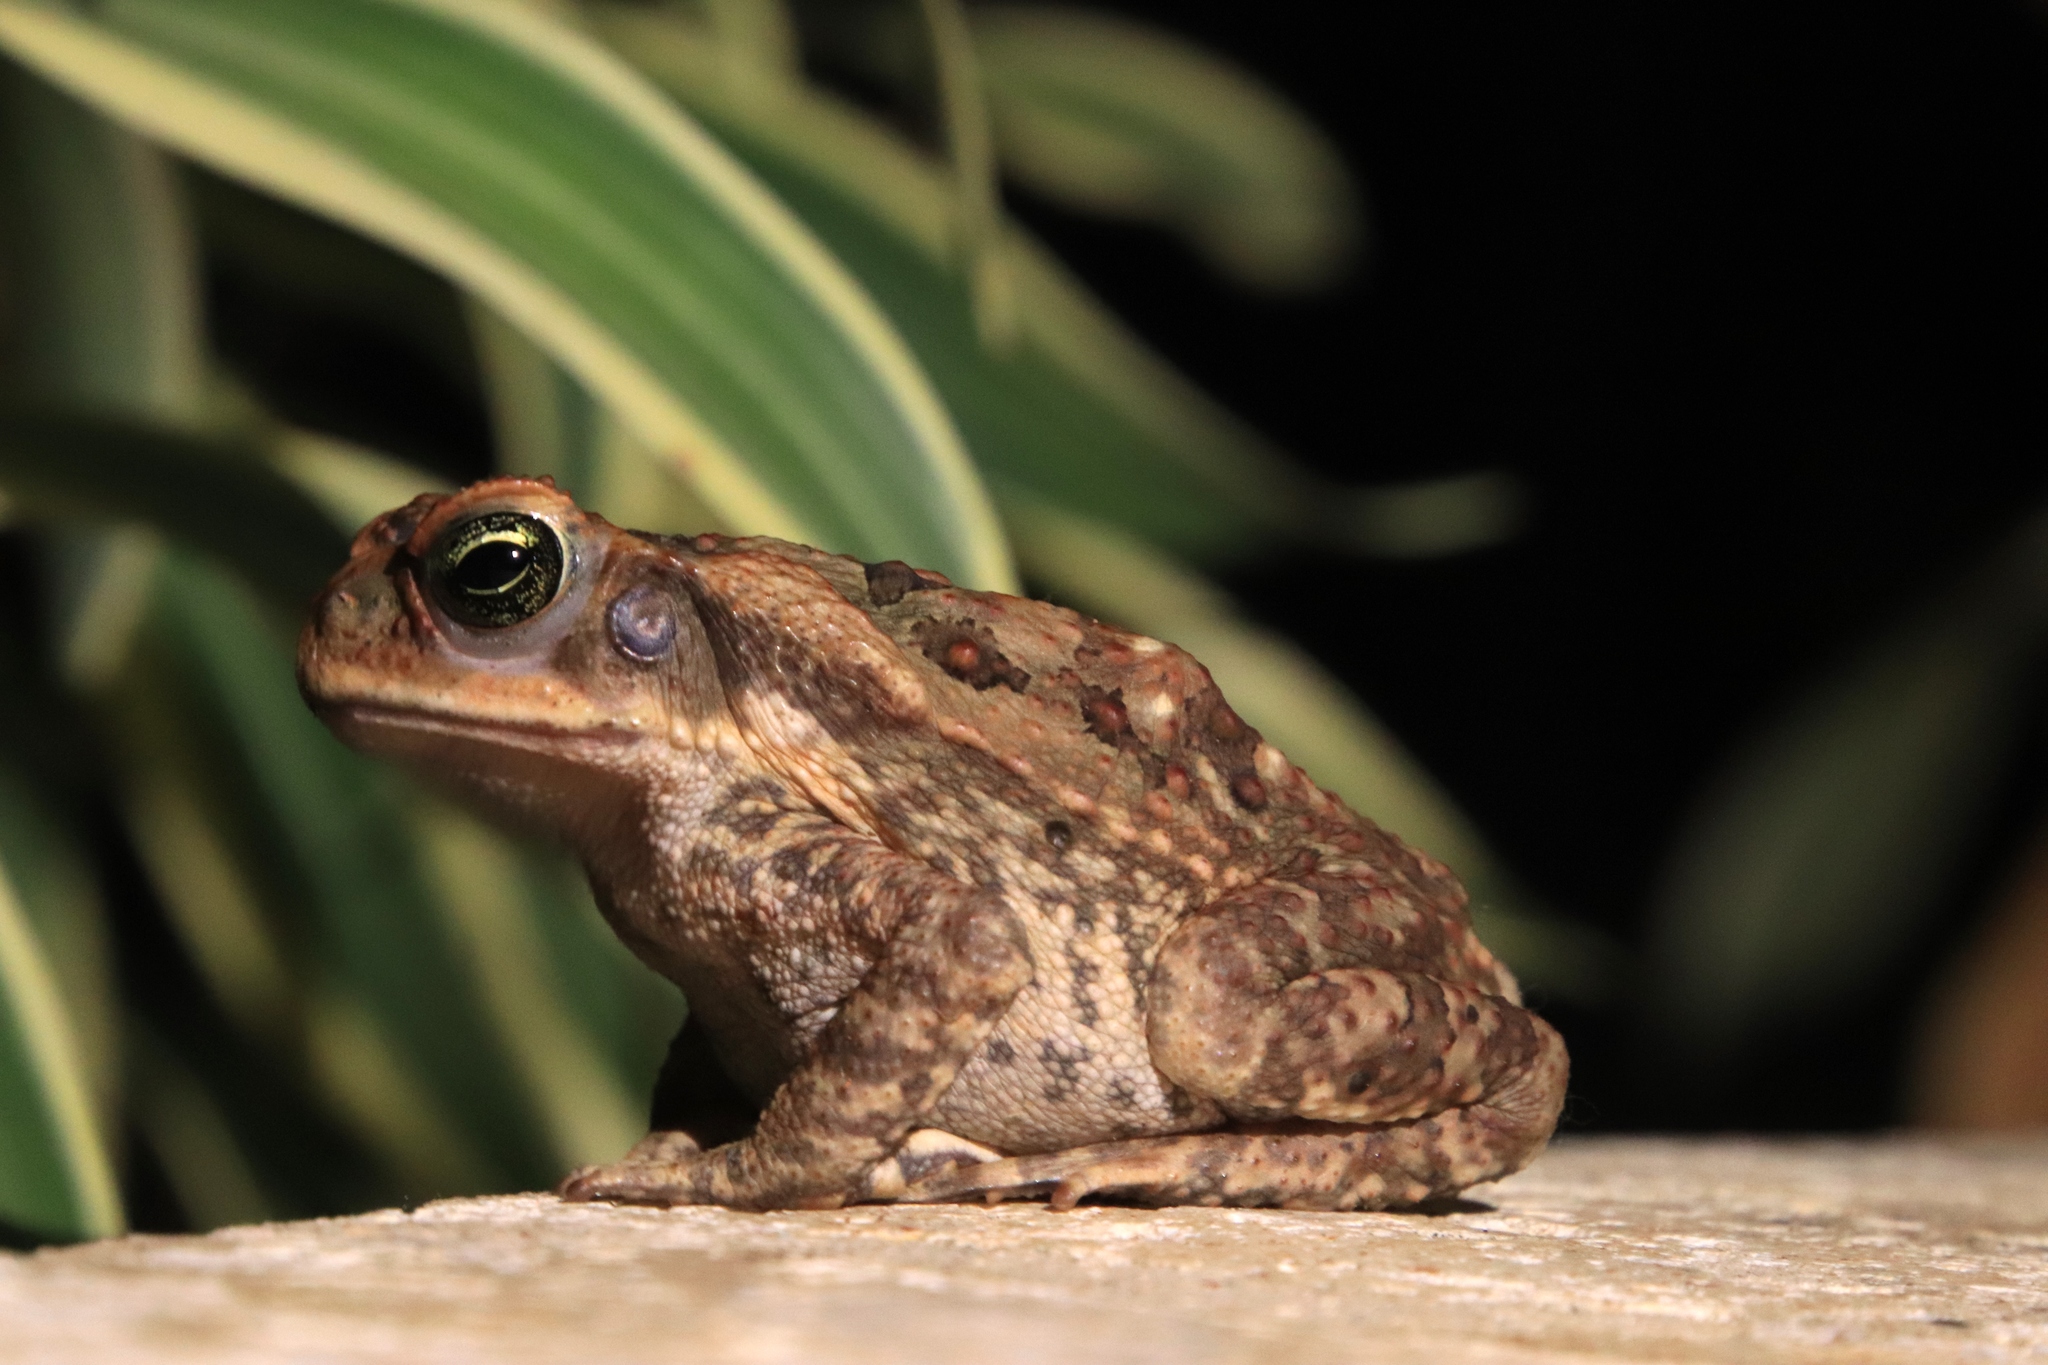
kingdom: Animalia
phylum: Chordata
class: Amphibia
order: Anura
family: Bufonidae
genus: Rhinella
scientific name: Rhinella horribilis
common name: Mesoamerican cane toad
